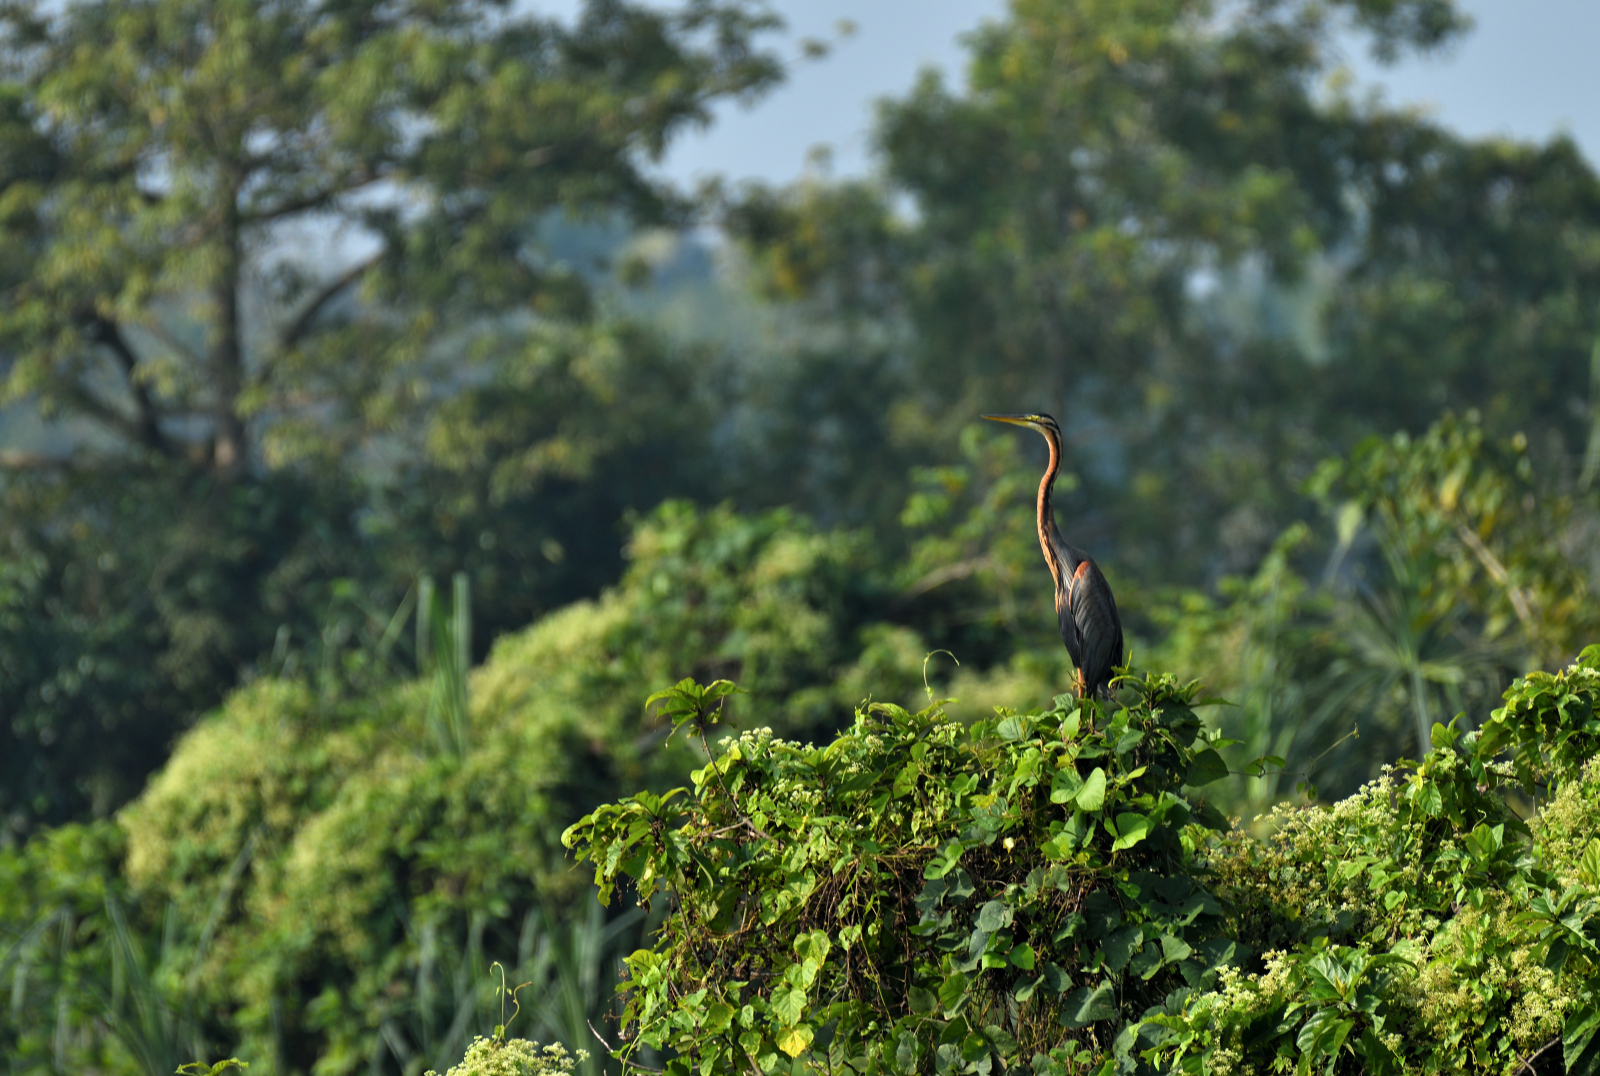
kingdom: Animalia
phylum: Chordata
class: Aves
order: Pelecaniformes
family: Ardeidae
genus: Ardea
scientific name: Ardea purpurea
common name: Purple heron
